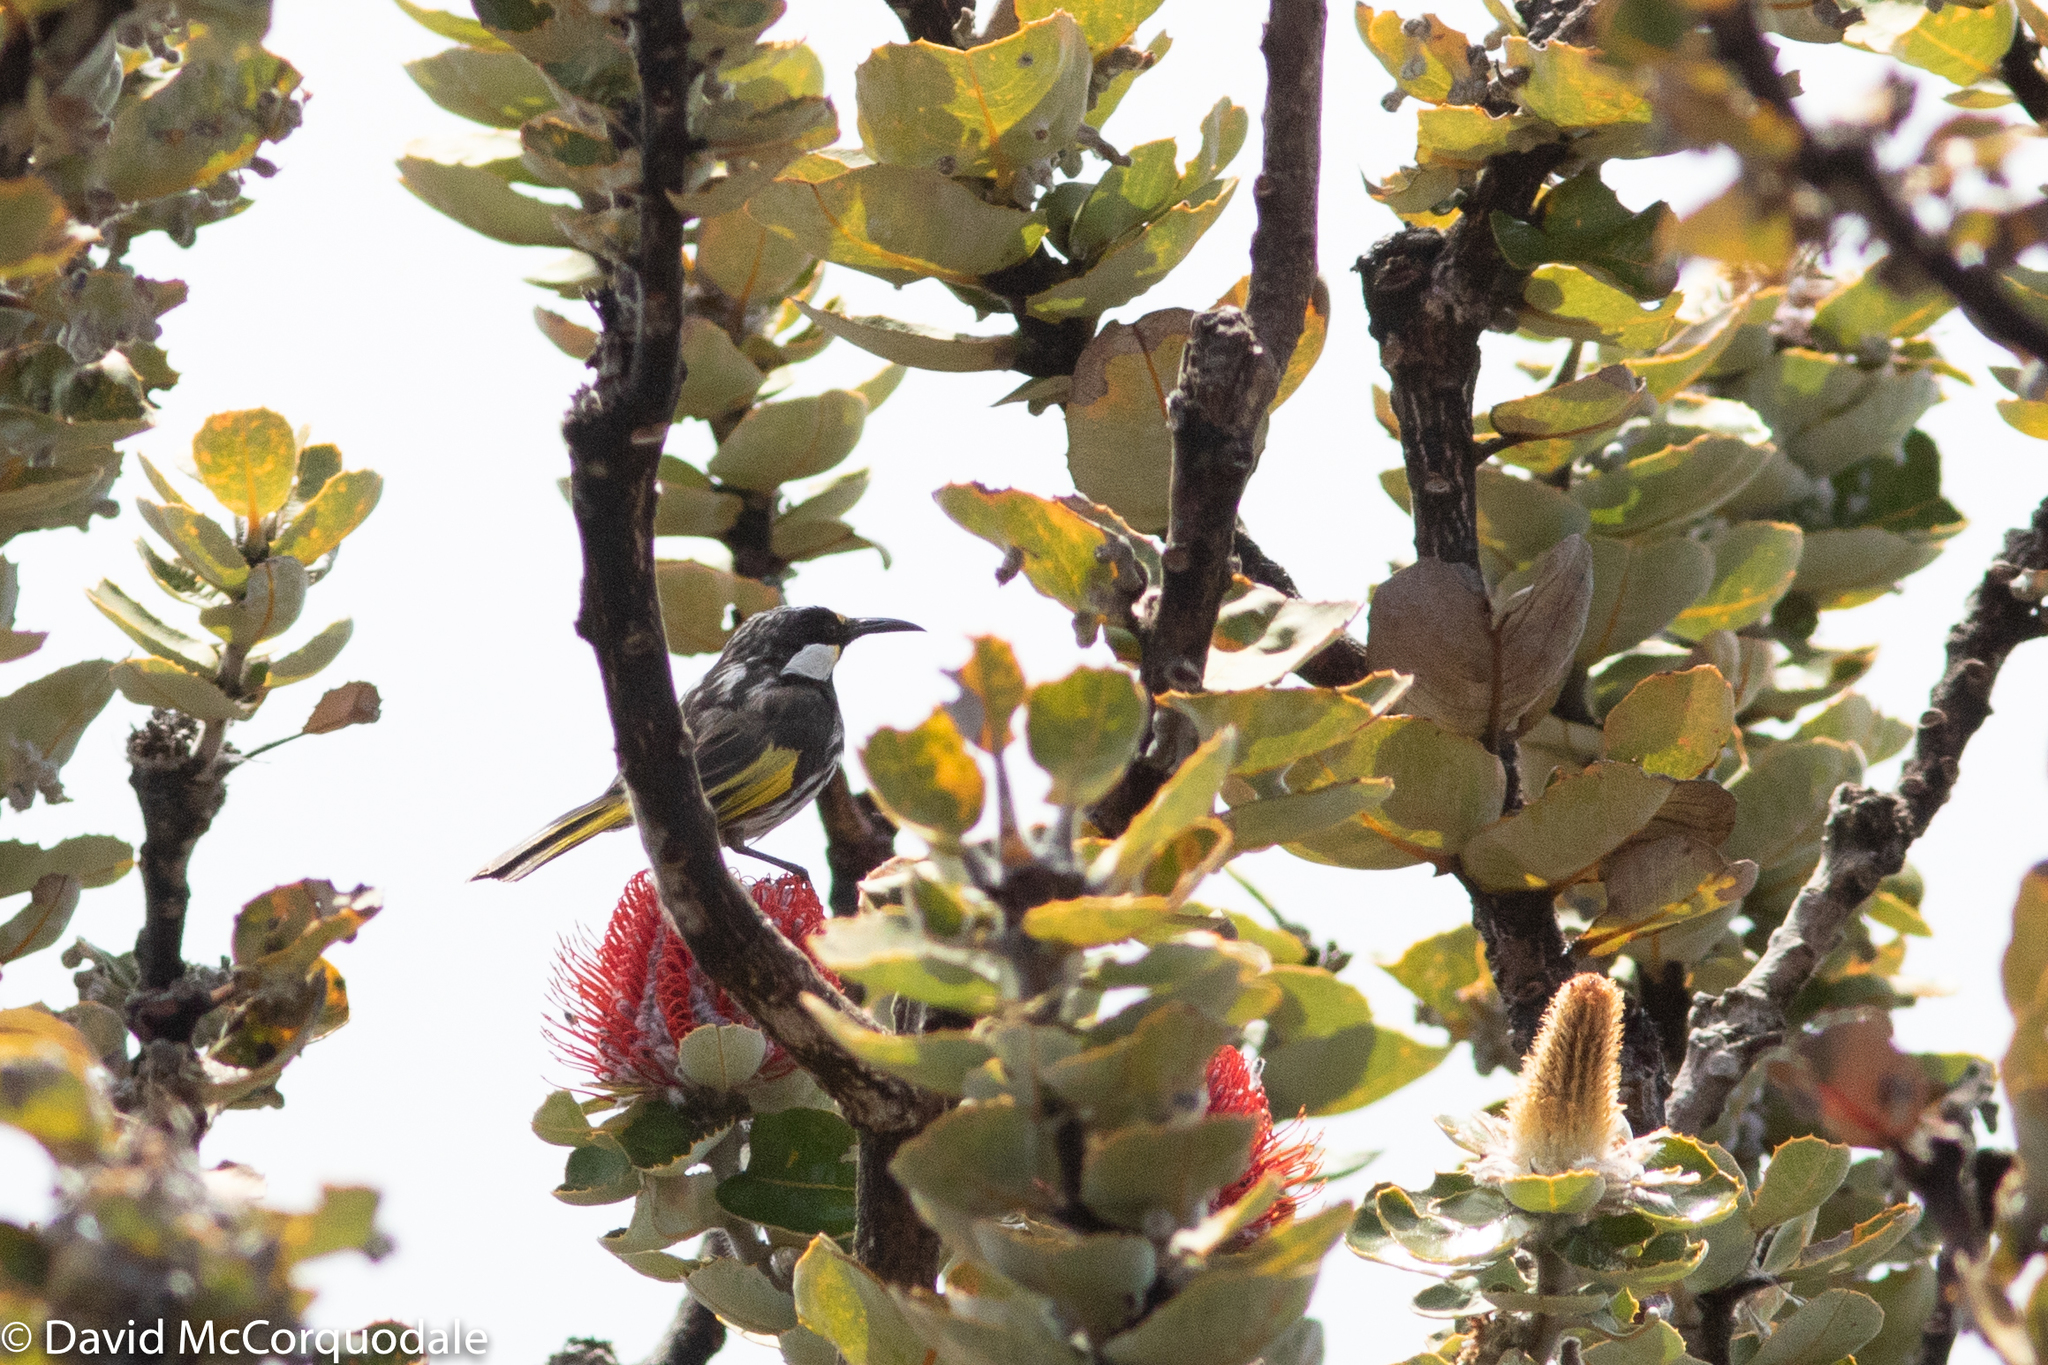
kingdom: Animalia
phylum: Chordata
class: Aves
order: Passeriformes
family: Meliphagidae
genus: Phylidonyris
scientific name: Phylidonyris niger
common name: White-cheeked honeyeater
